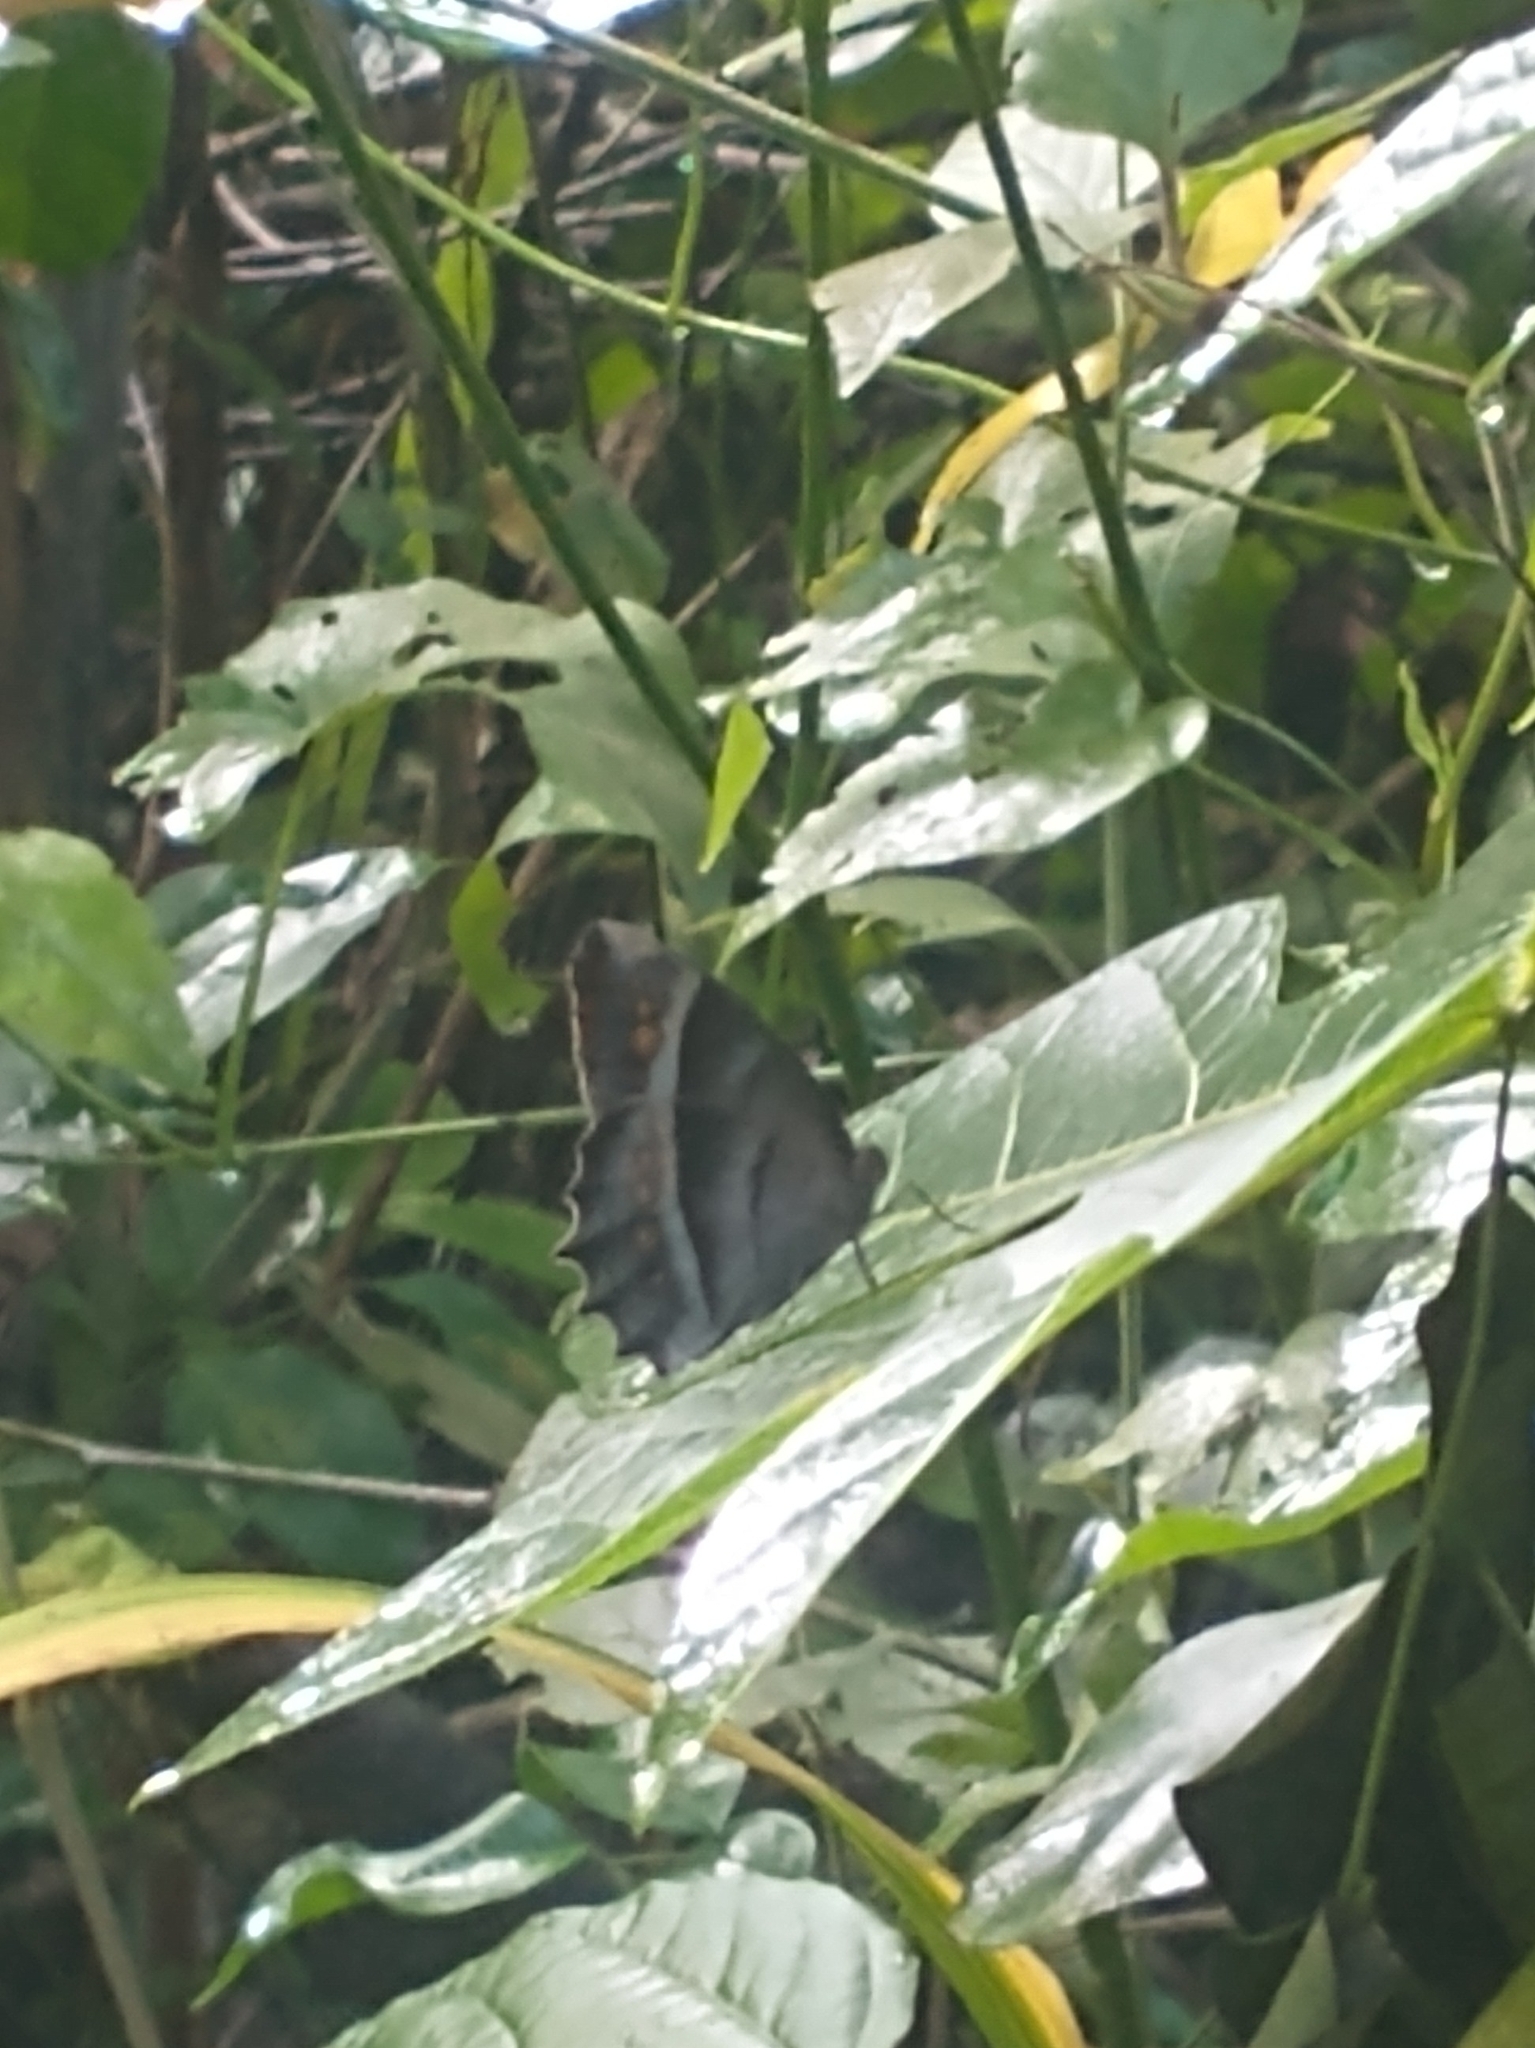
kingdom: Animalia
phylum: Arthropoda
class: Insecta
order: Lepidoptera
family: Nymphalidae
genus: Taygetis
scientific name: Taygetis inconspicua
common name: Inconspicuous satyr
